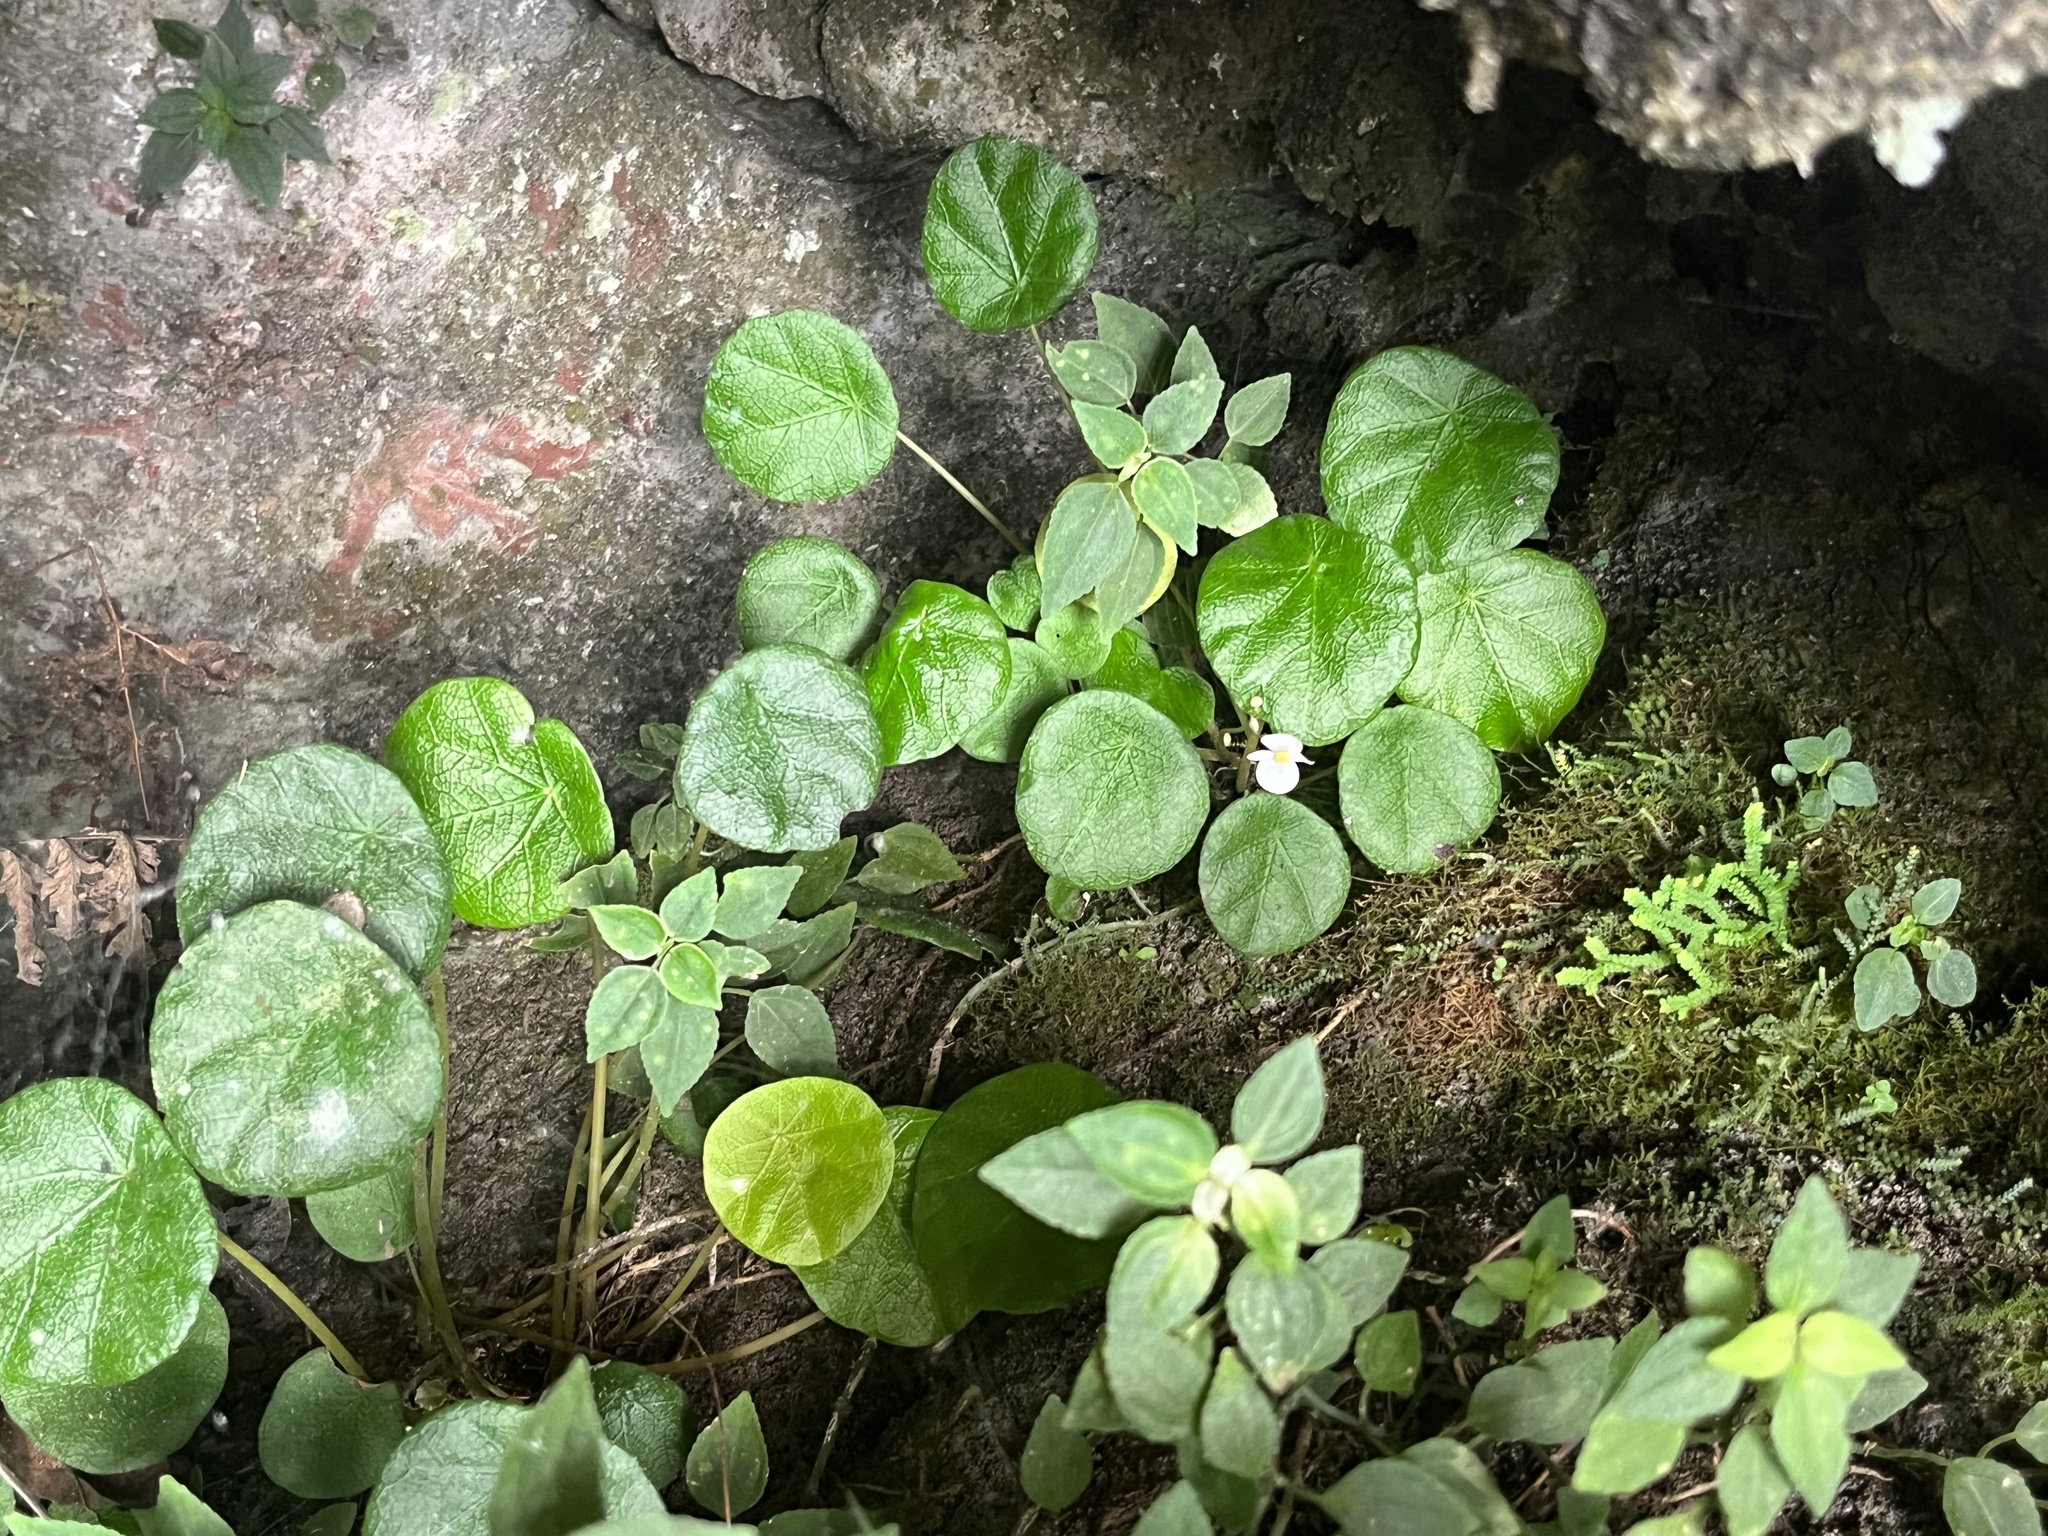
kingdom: Plantae
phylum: Tracheophyta
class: Magnoliopsida
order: Cucurbitales
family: Begoniaceae
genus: Begonia
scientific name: Begonia speluncae
